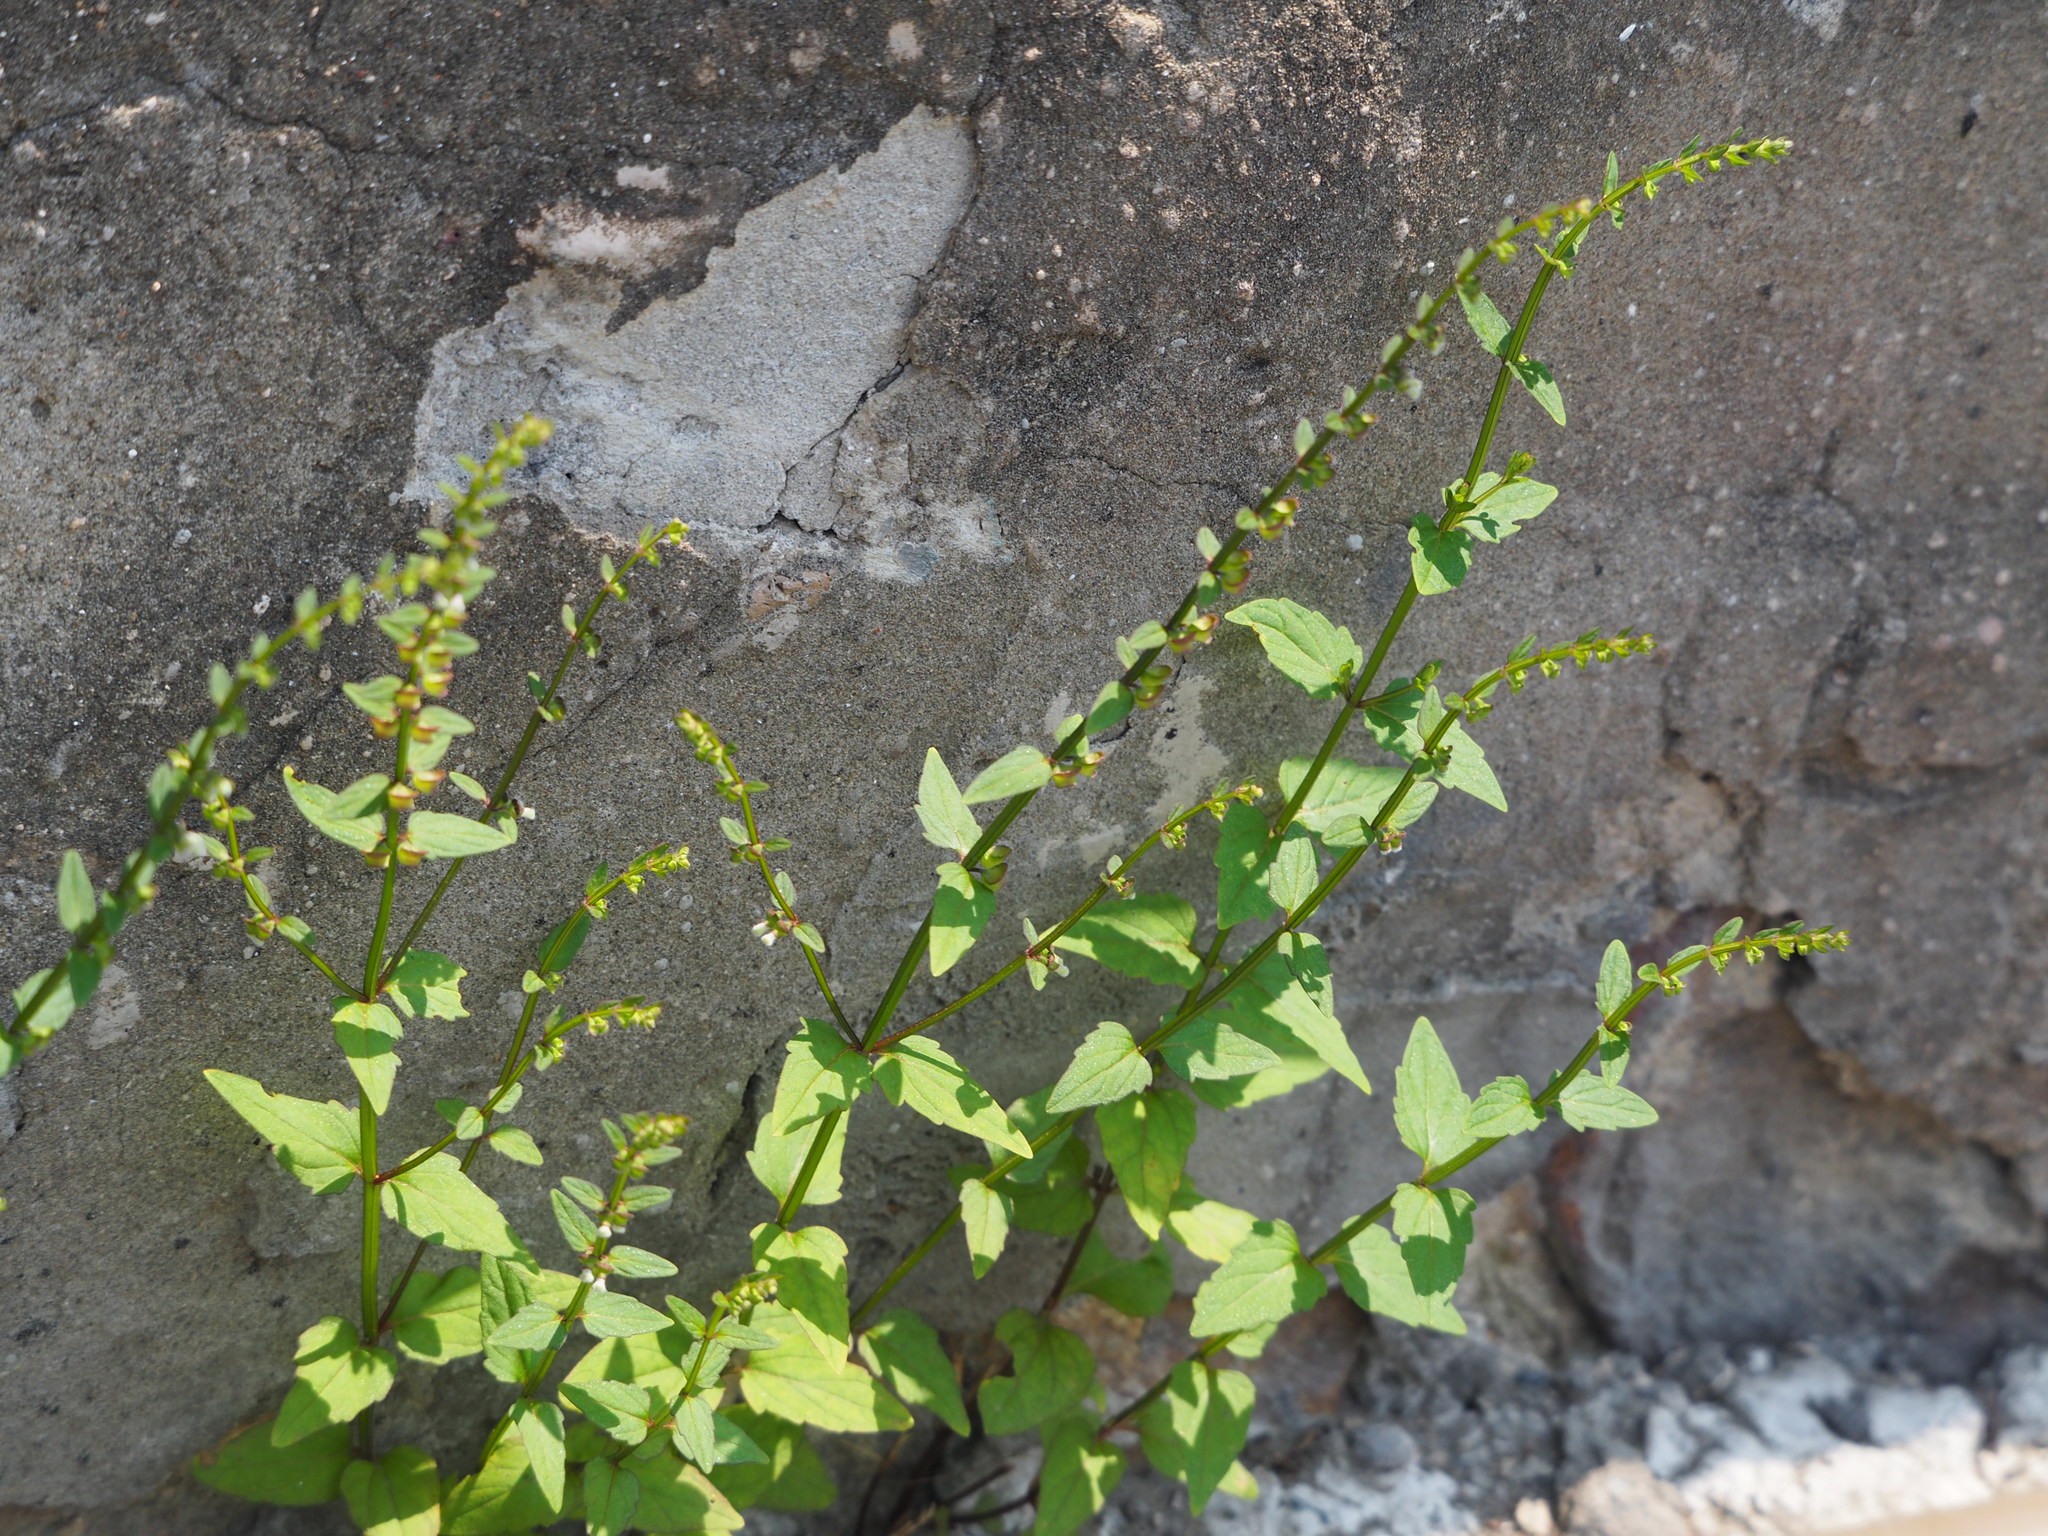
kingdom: Plantae
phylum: Tracheophyta
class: Magnoliopsida
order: Lamiales
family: Lamiaceae
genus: Scutellaria
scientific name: Scutellaria barbata
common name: Barbed skullcap
